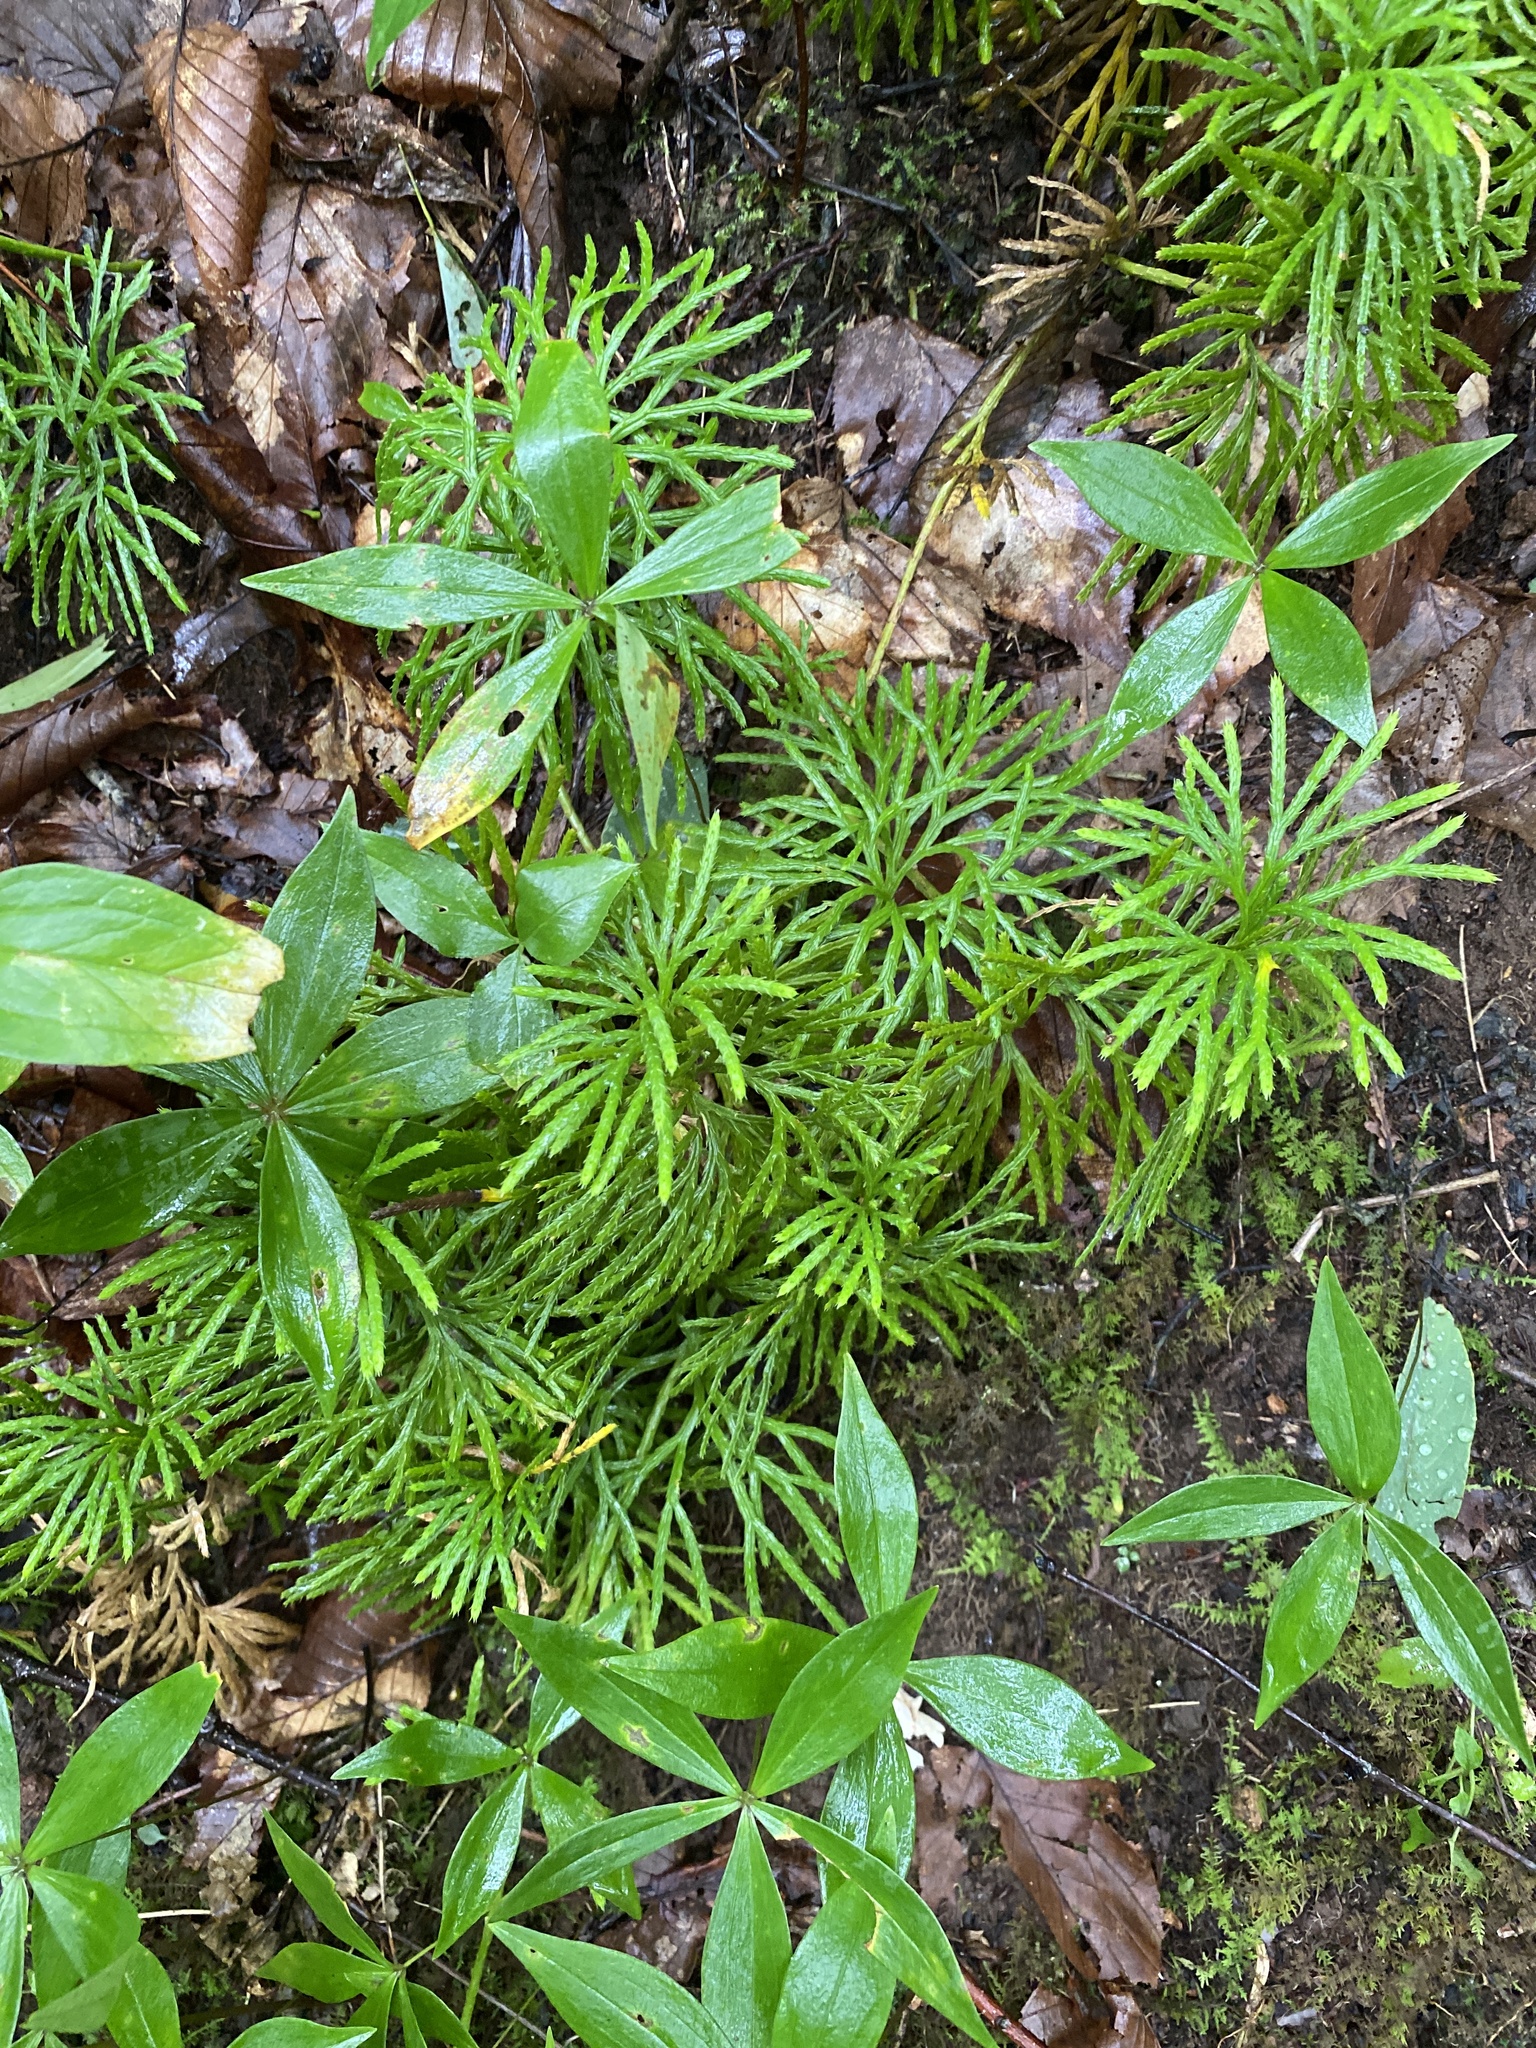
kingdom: Plantae
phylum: Tracheophyta
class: Lycopodiopsida
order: Lycopodiales
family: Lycopodiaceae
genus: Diphasiastrum
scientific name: Diphasiastrum digitatum
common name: Southern running-pine
